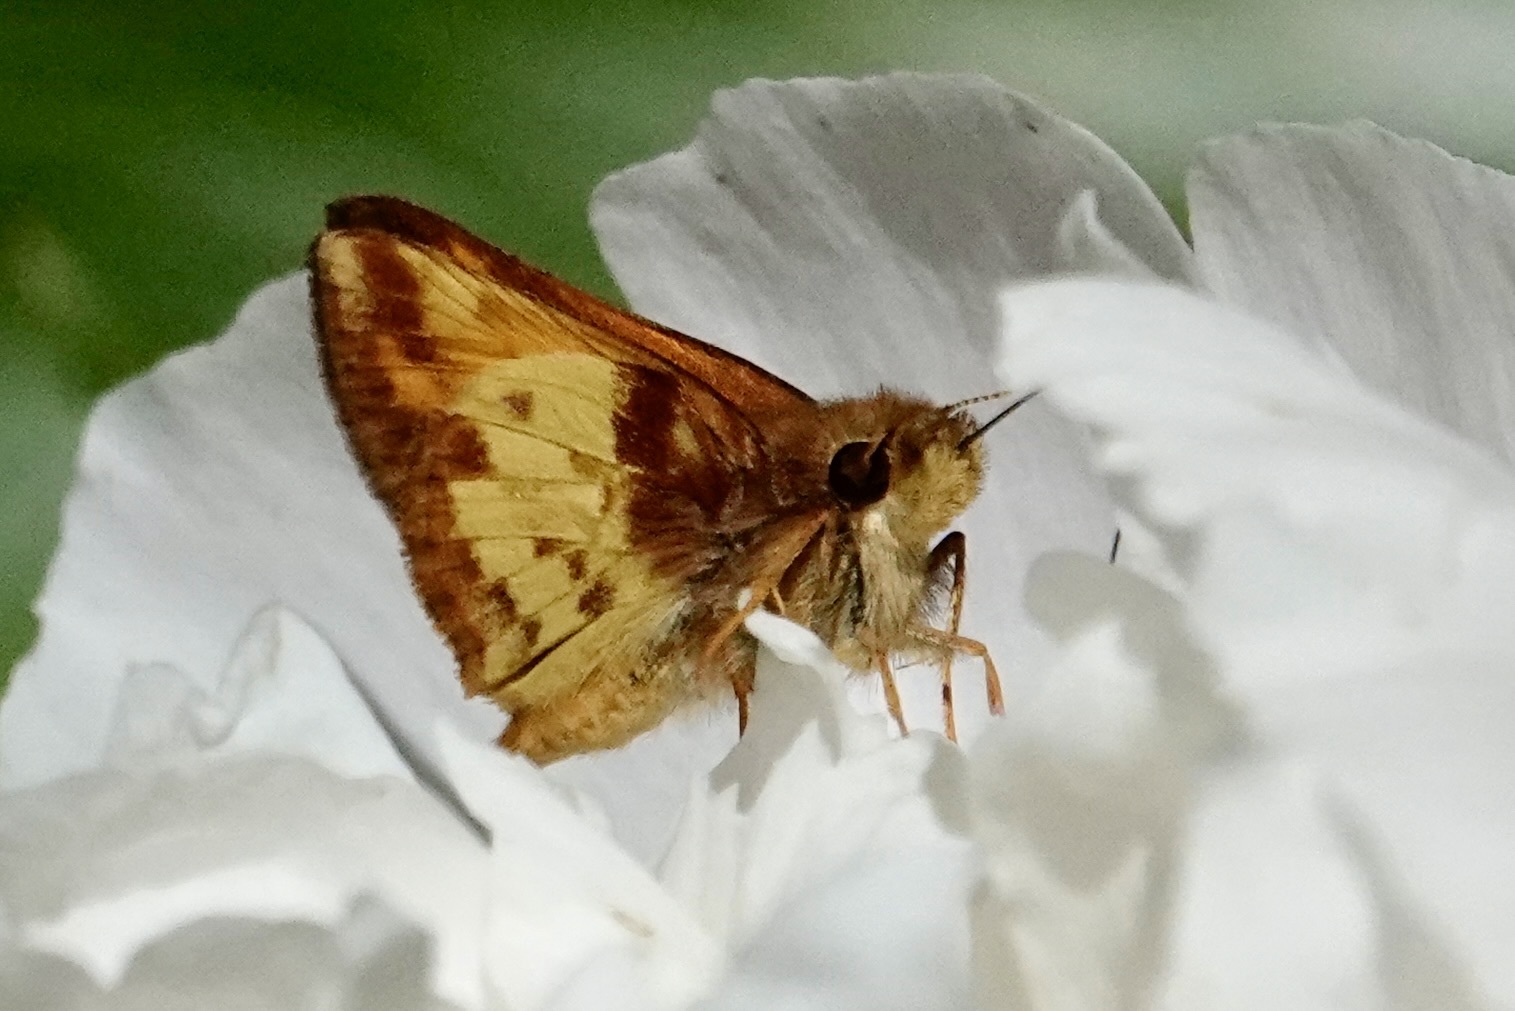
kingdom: Animalia
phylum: Arthropoda
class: Insecta
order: Lepidoptera
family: Hesperiidae
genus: Lon
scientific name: Lon zabulon
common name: Zabulon skipper
